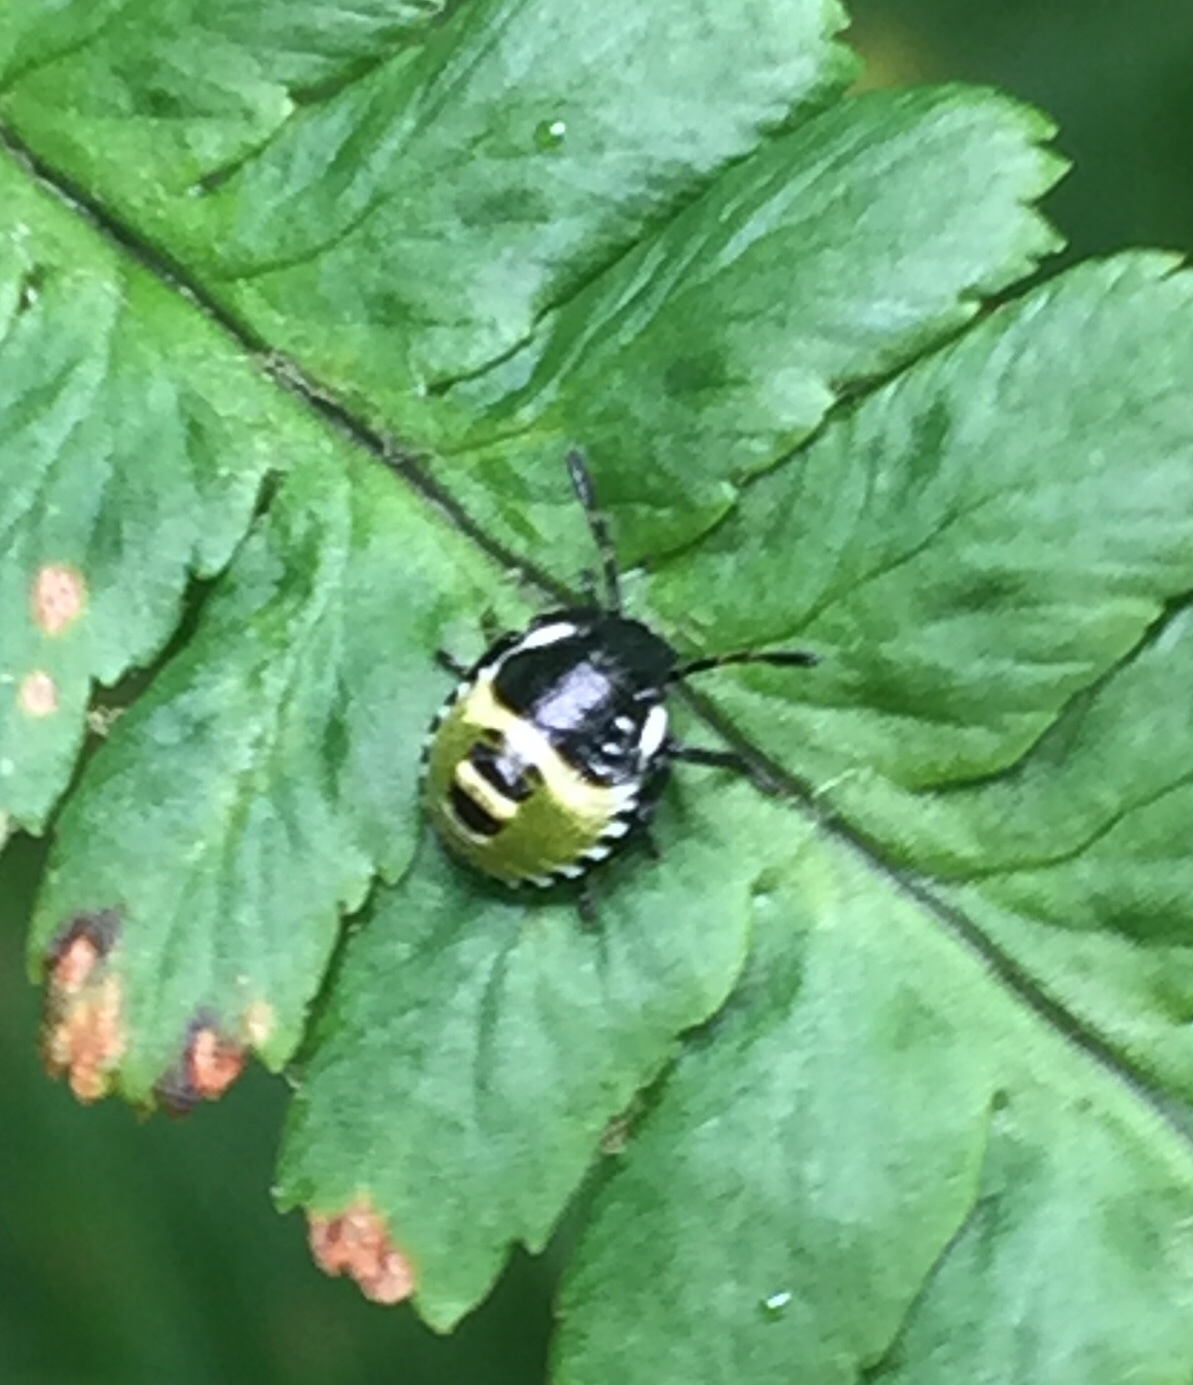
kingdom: Animalia
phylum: Arthropoda
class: Insecta
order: Hemiptera
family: Pentatomidae
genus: Palomena
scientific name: Palomena prasina
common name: Green shieldbug
